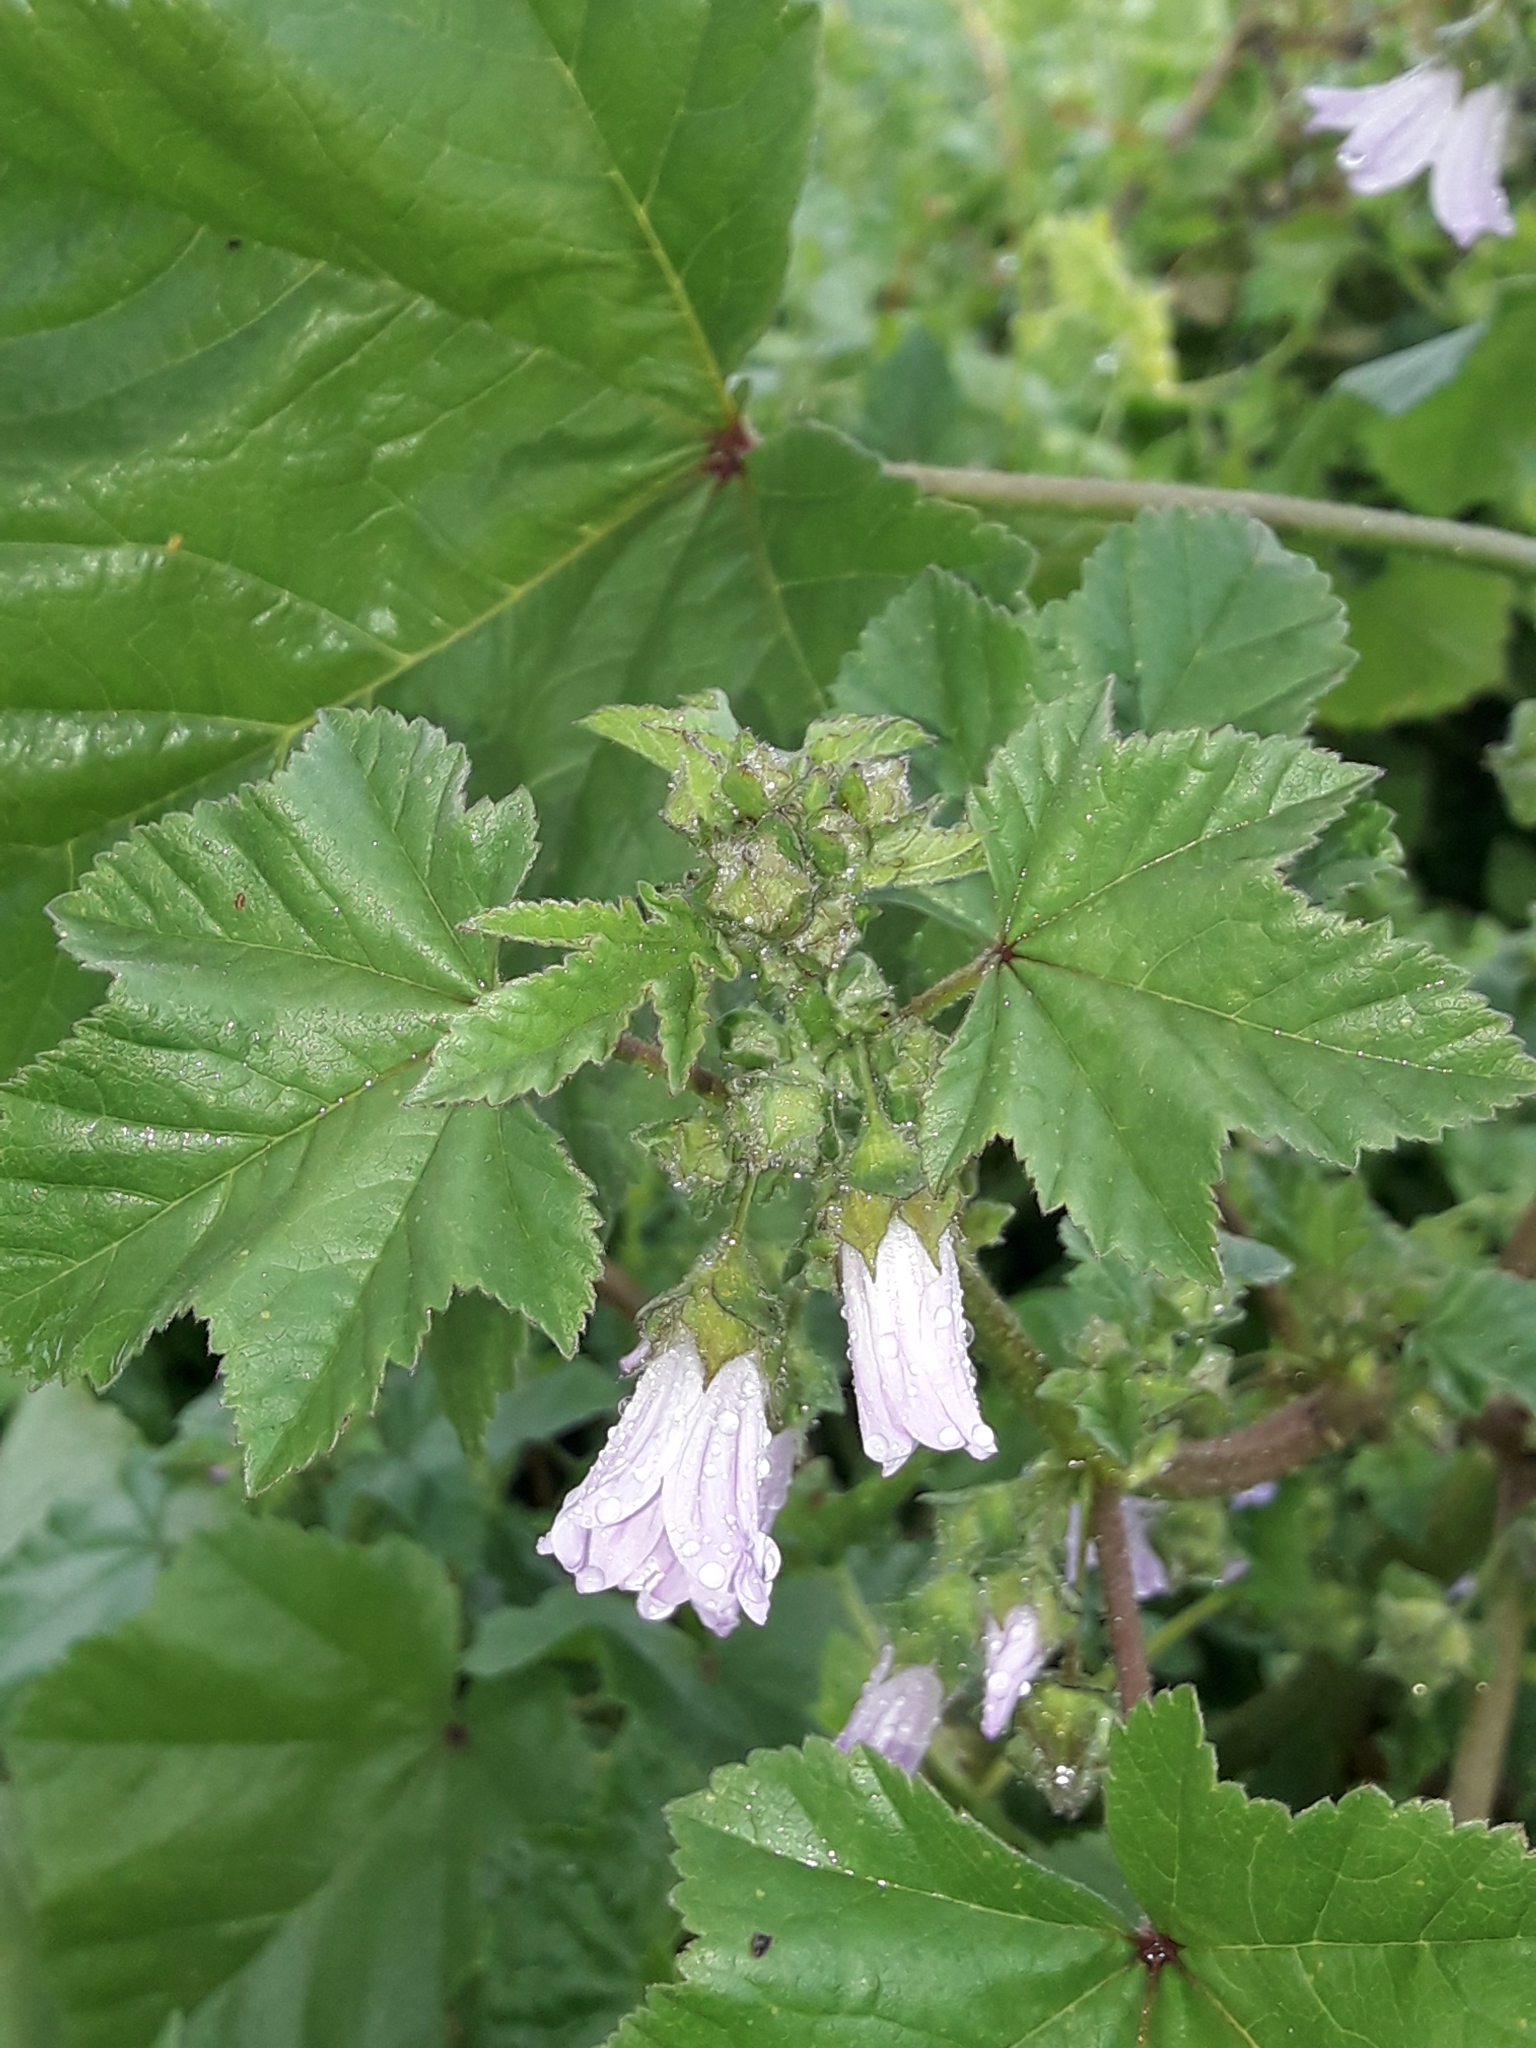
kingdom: Plantae
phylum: Tracheophyta
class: Magnoliopsida
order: Malvales
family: Malvaceae
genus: Malva
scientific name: Malva multiflora
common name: Cheeseweed
